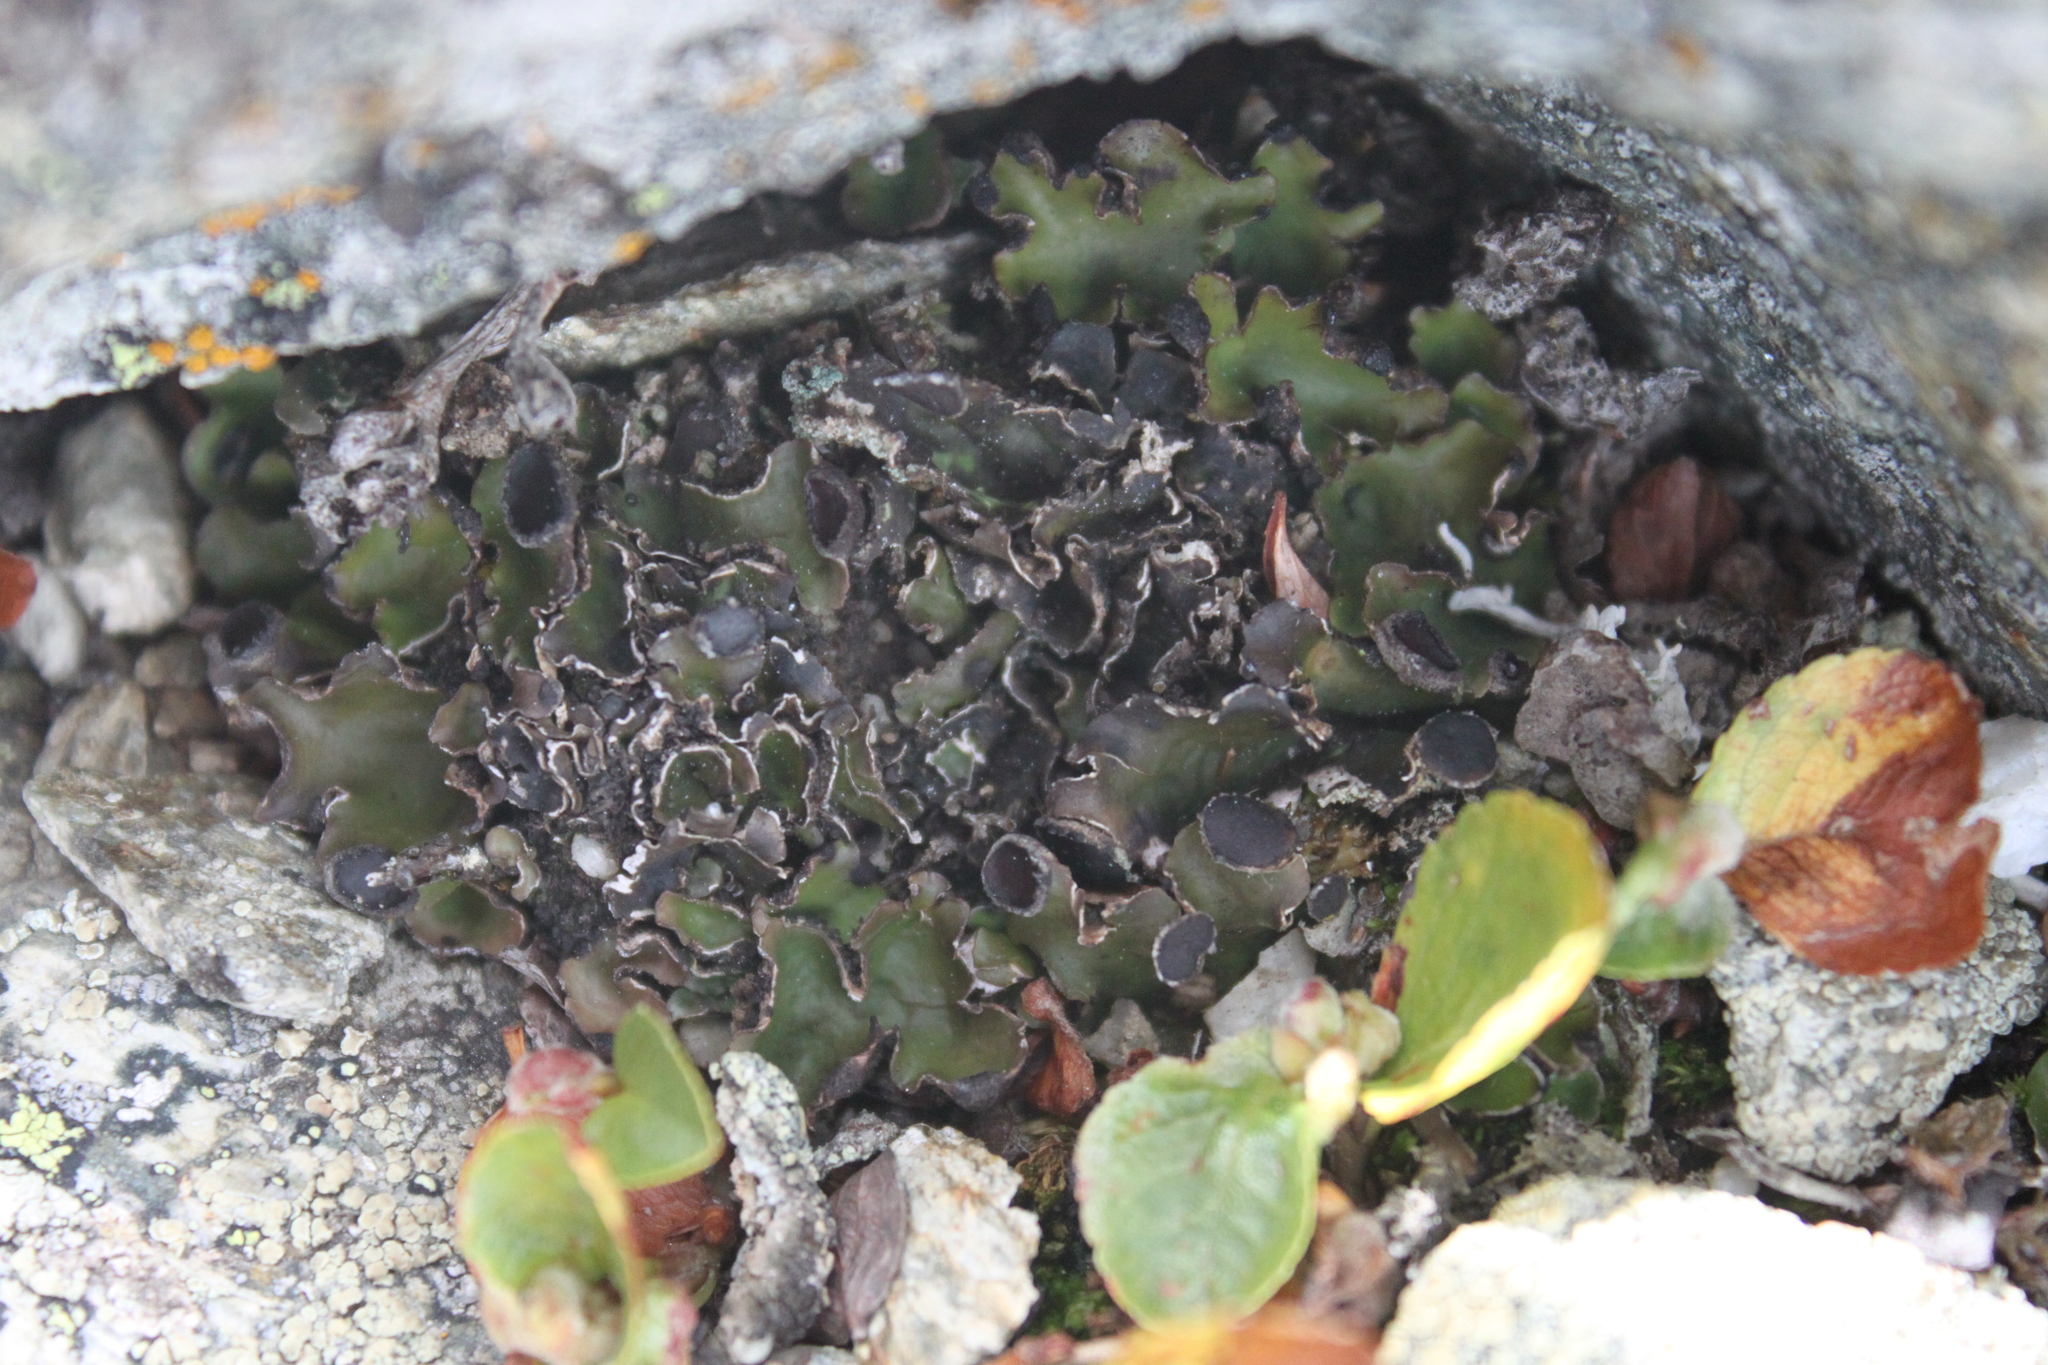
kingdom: Fungi
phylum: Ascomycota
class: Lecanoromycetes
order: Peltigerales
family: Peltigeraceae
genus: Peltigera
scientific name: Peltigera venosa
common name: Pixie gowns lichen
